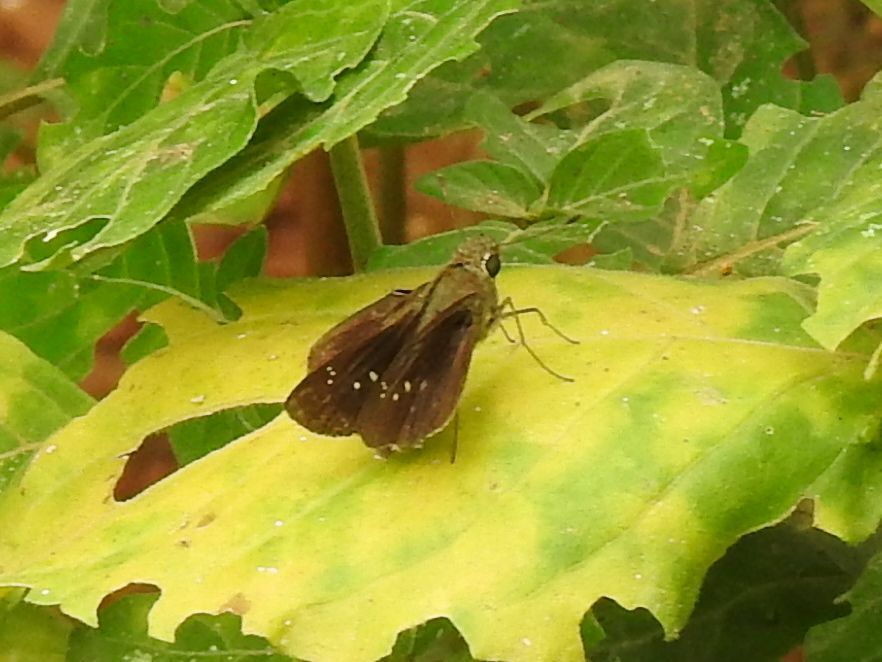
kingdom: Animalia
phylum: Arthropoda
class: Insecta
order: Lepidoptera
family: Hesperiidae
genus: Baoris
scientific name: Baoris fatuellus
